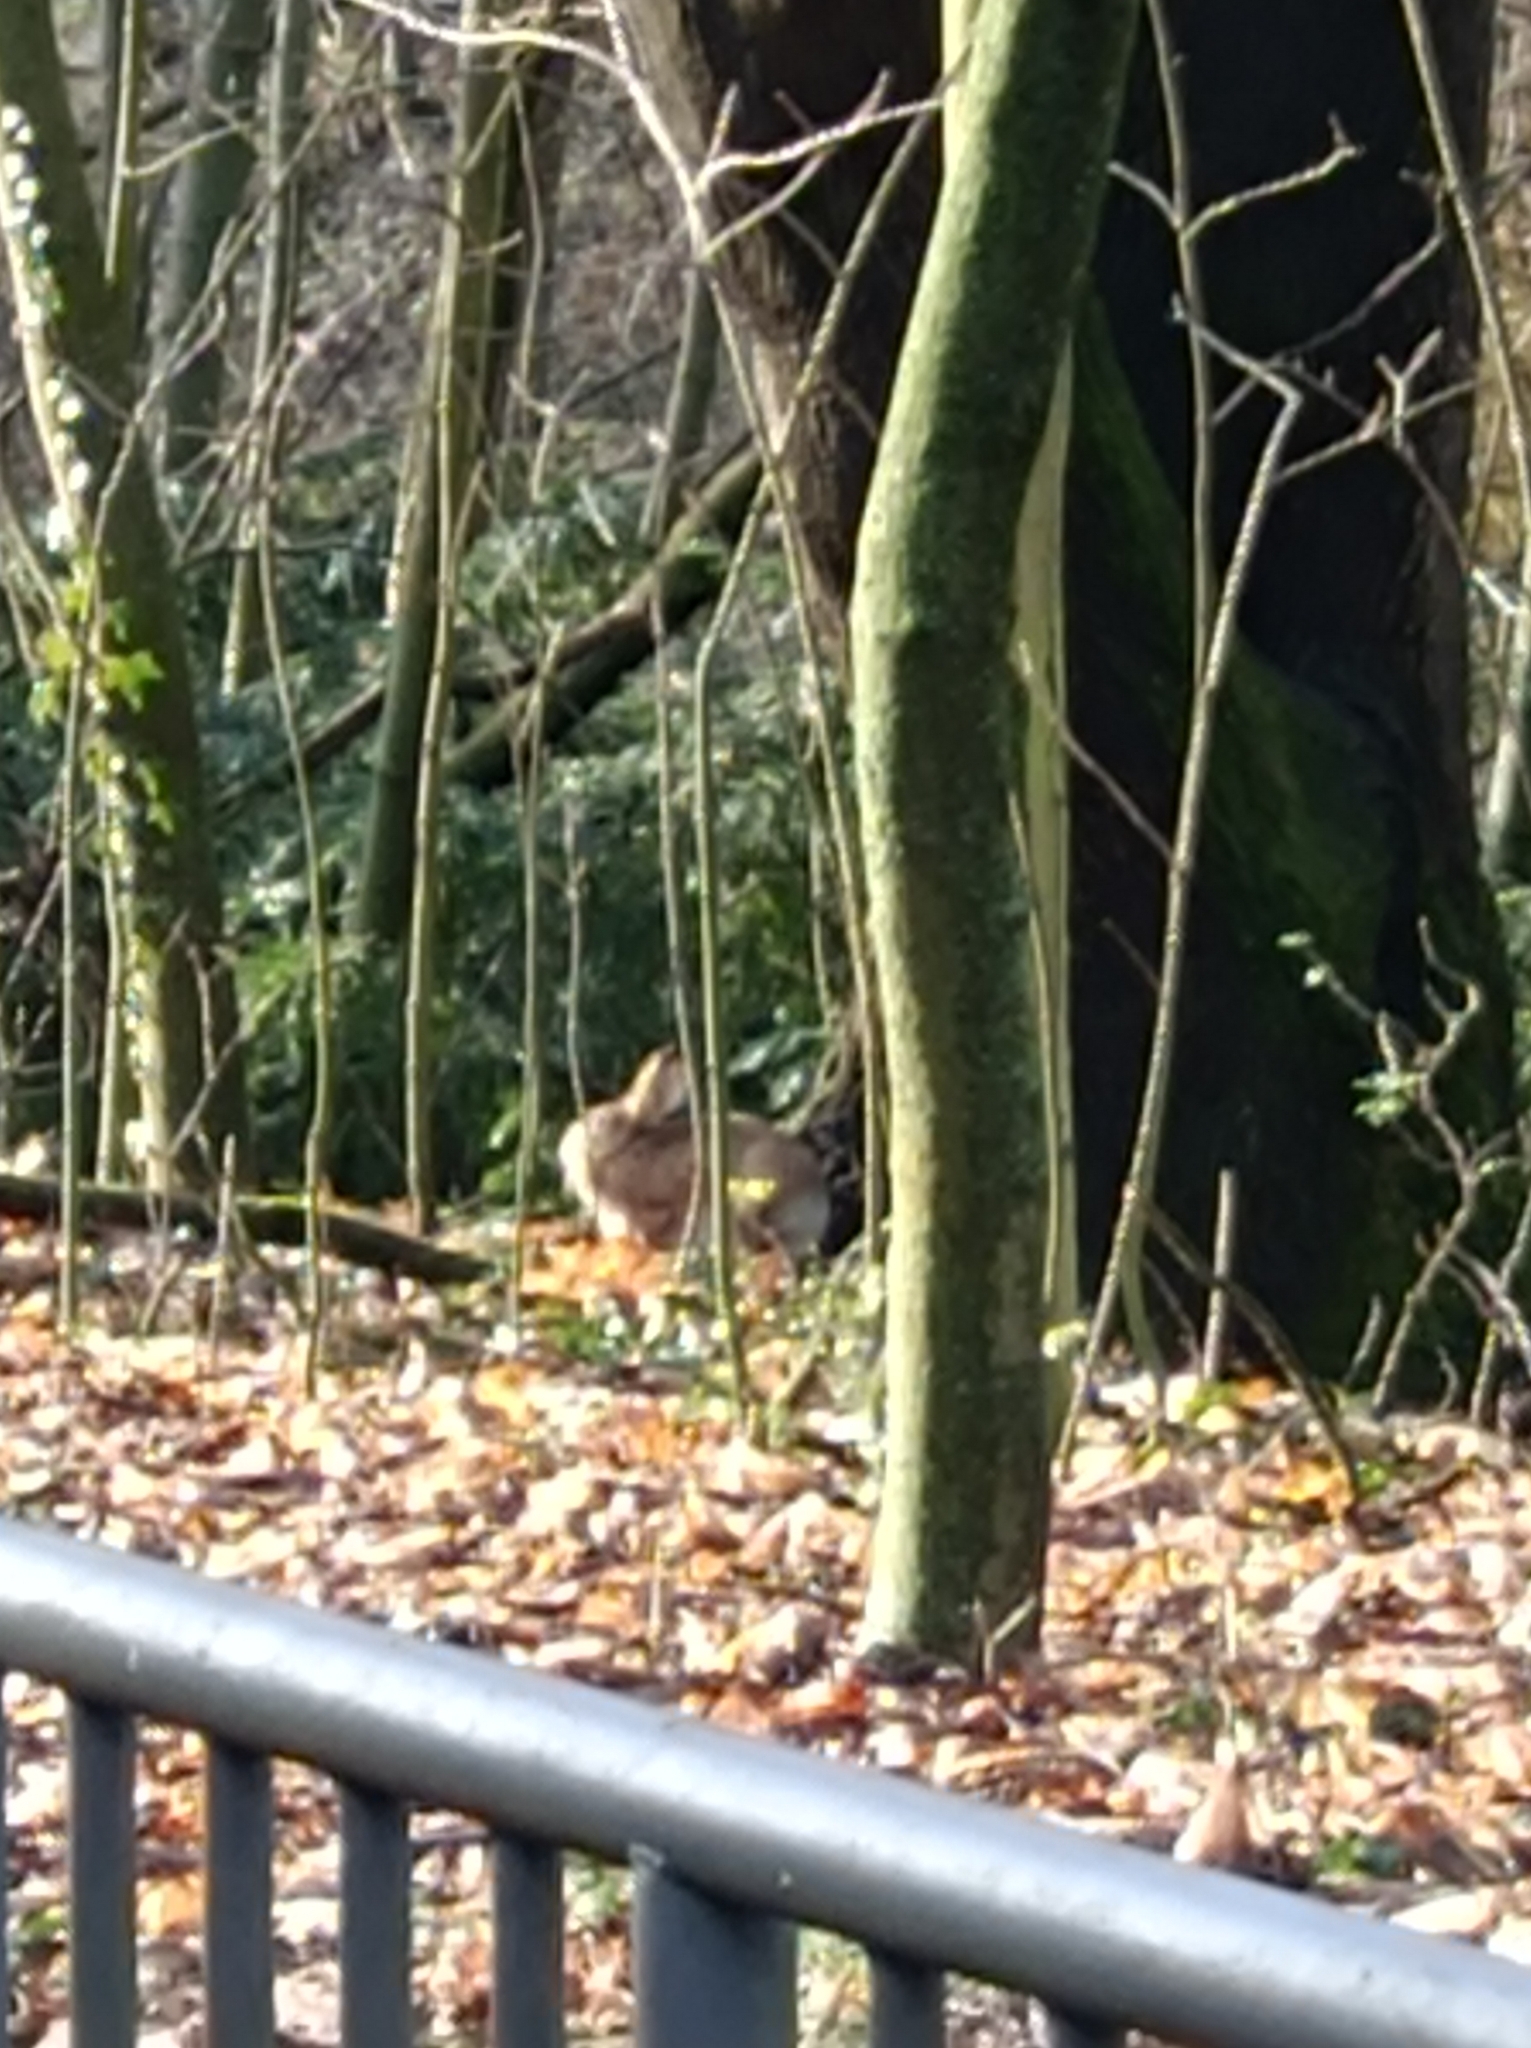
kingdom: Animalia
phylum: Chordata
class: Mammalia
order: Lagomorpha
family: Leporidae
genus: Lepus
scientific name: Lepus europaeus
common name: European hare
